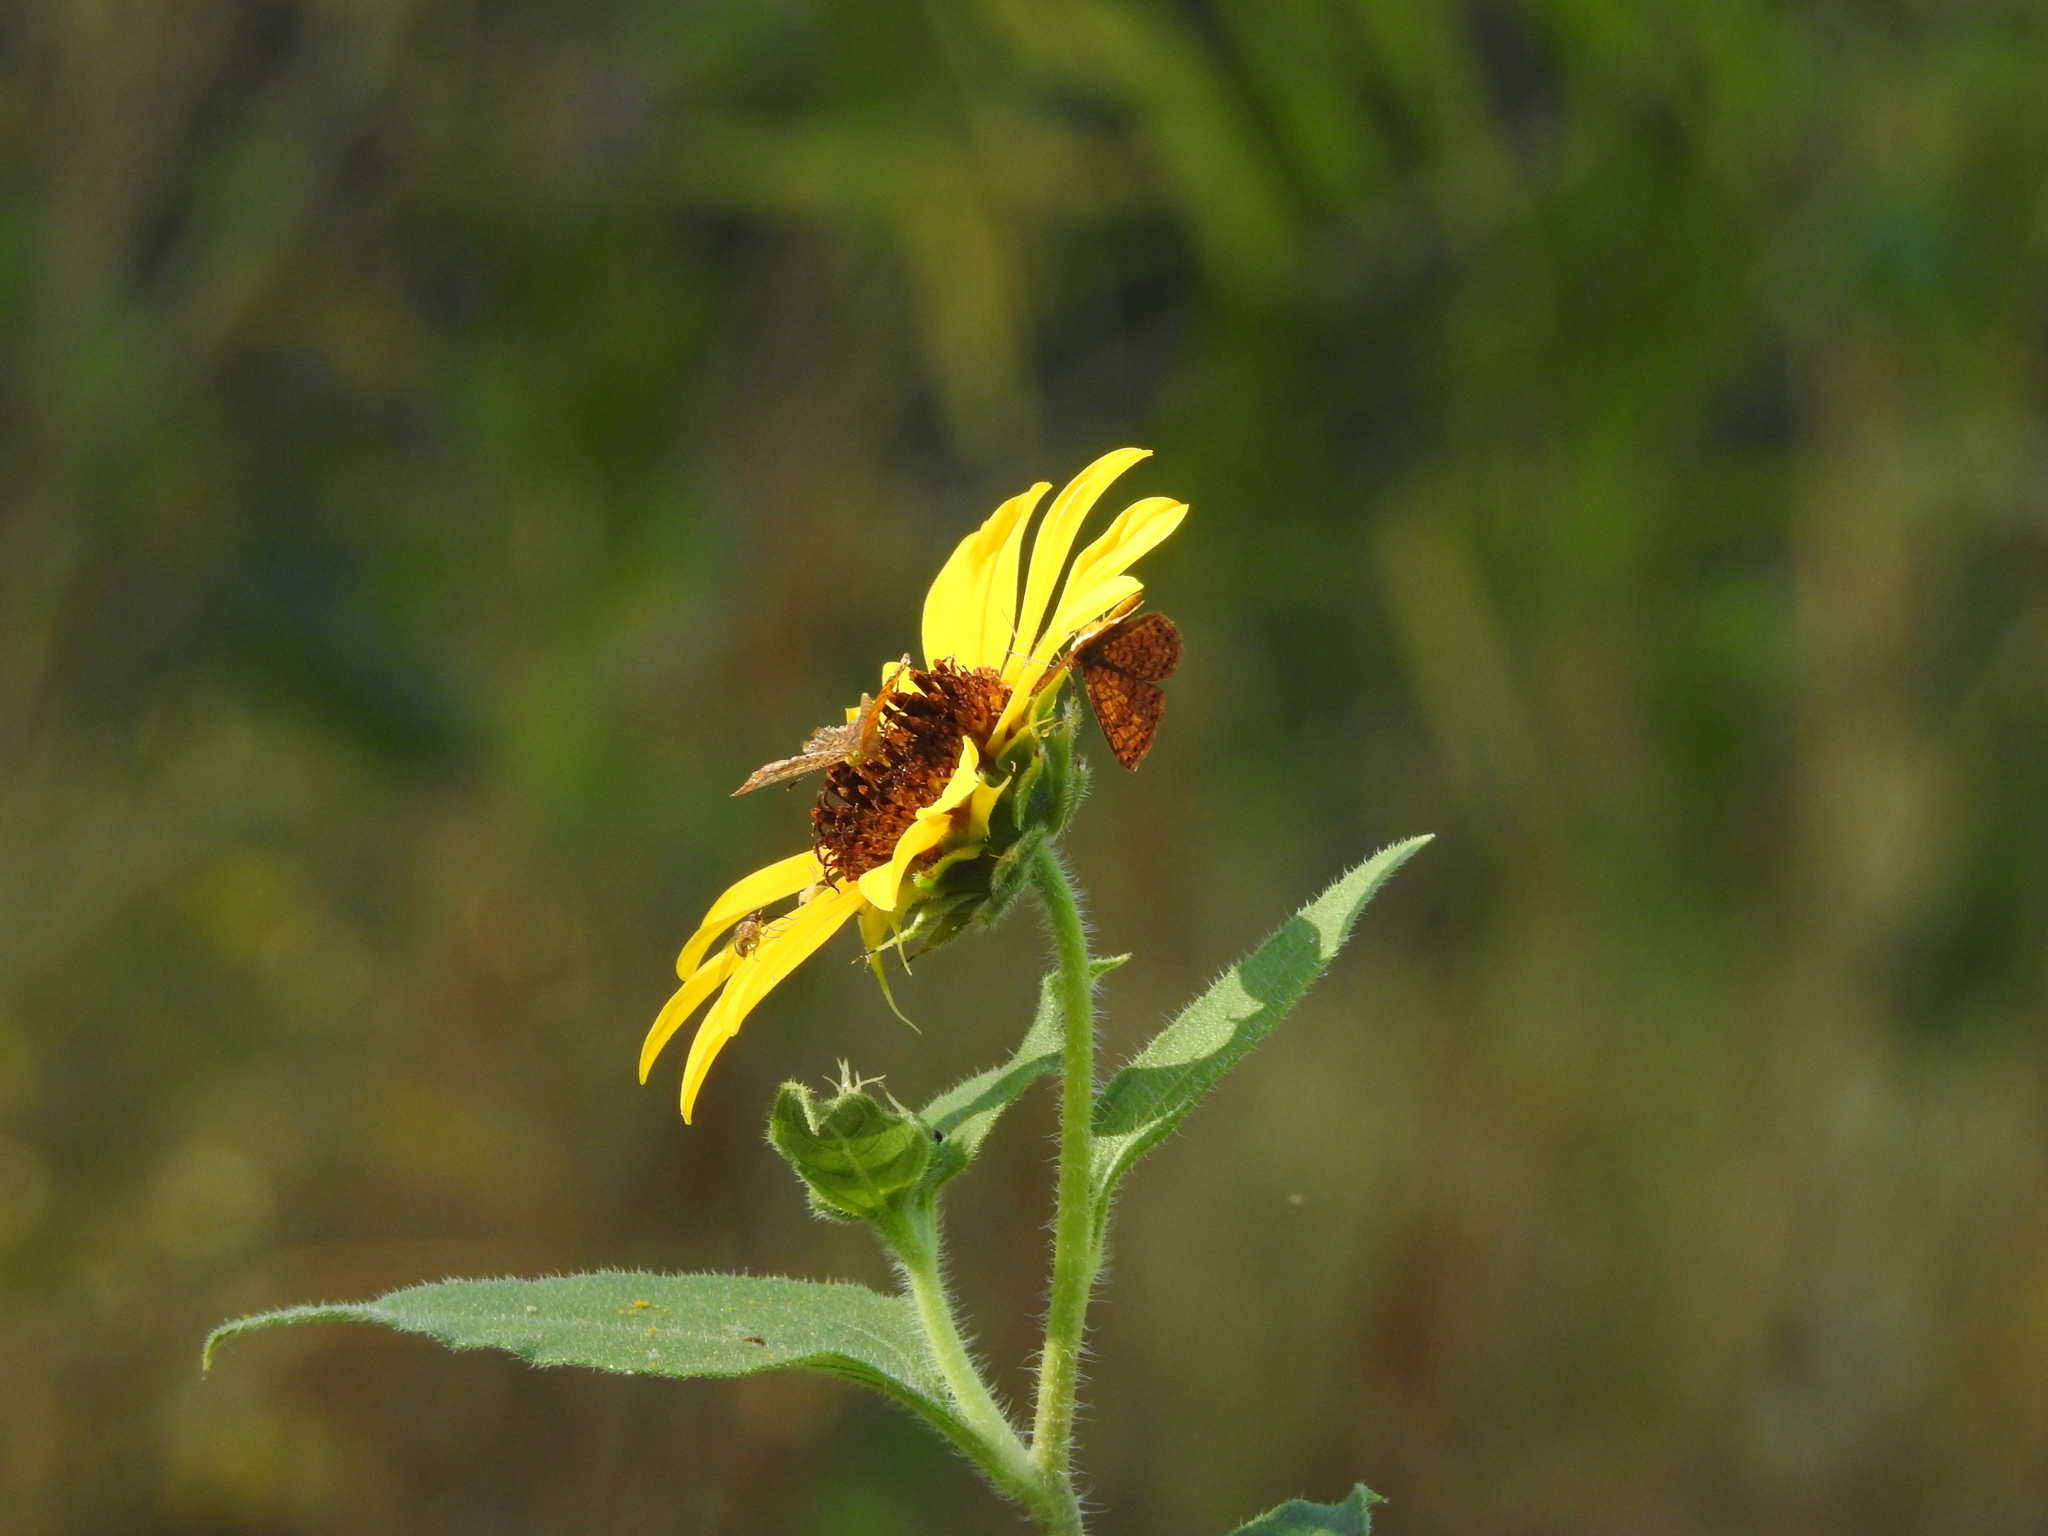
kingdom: Animalia
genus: Calephelis
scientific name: Calephelis nemesis
